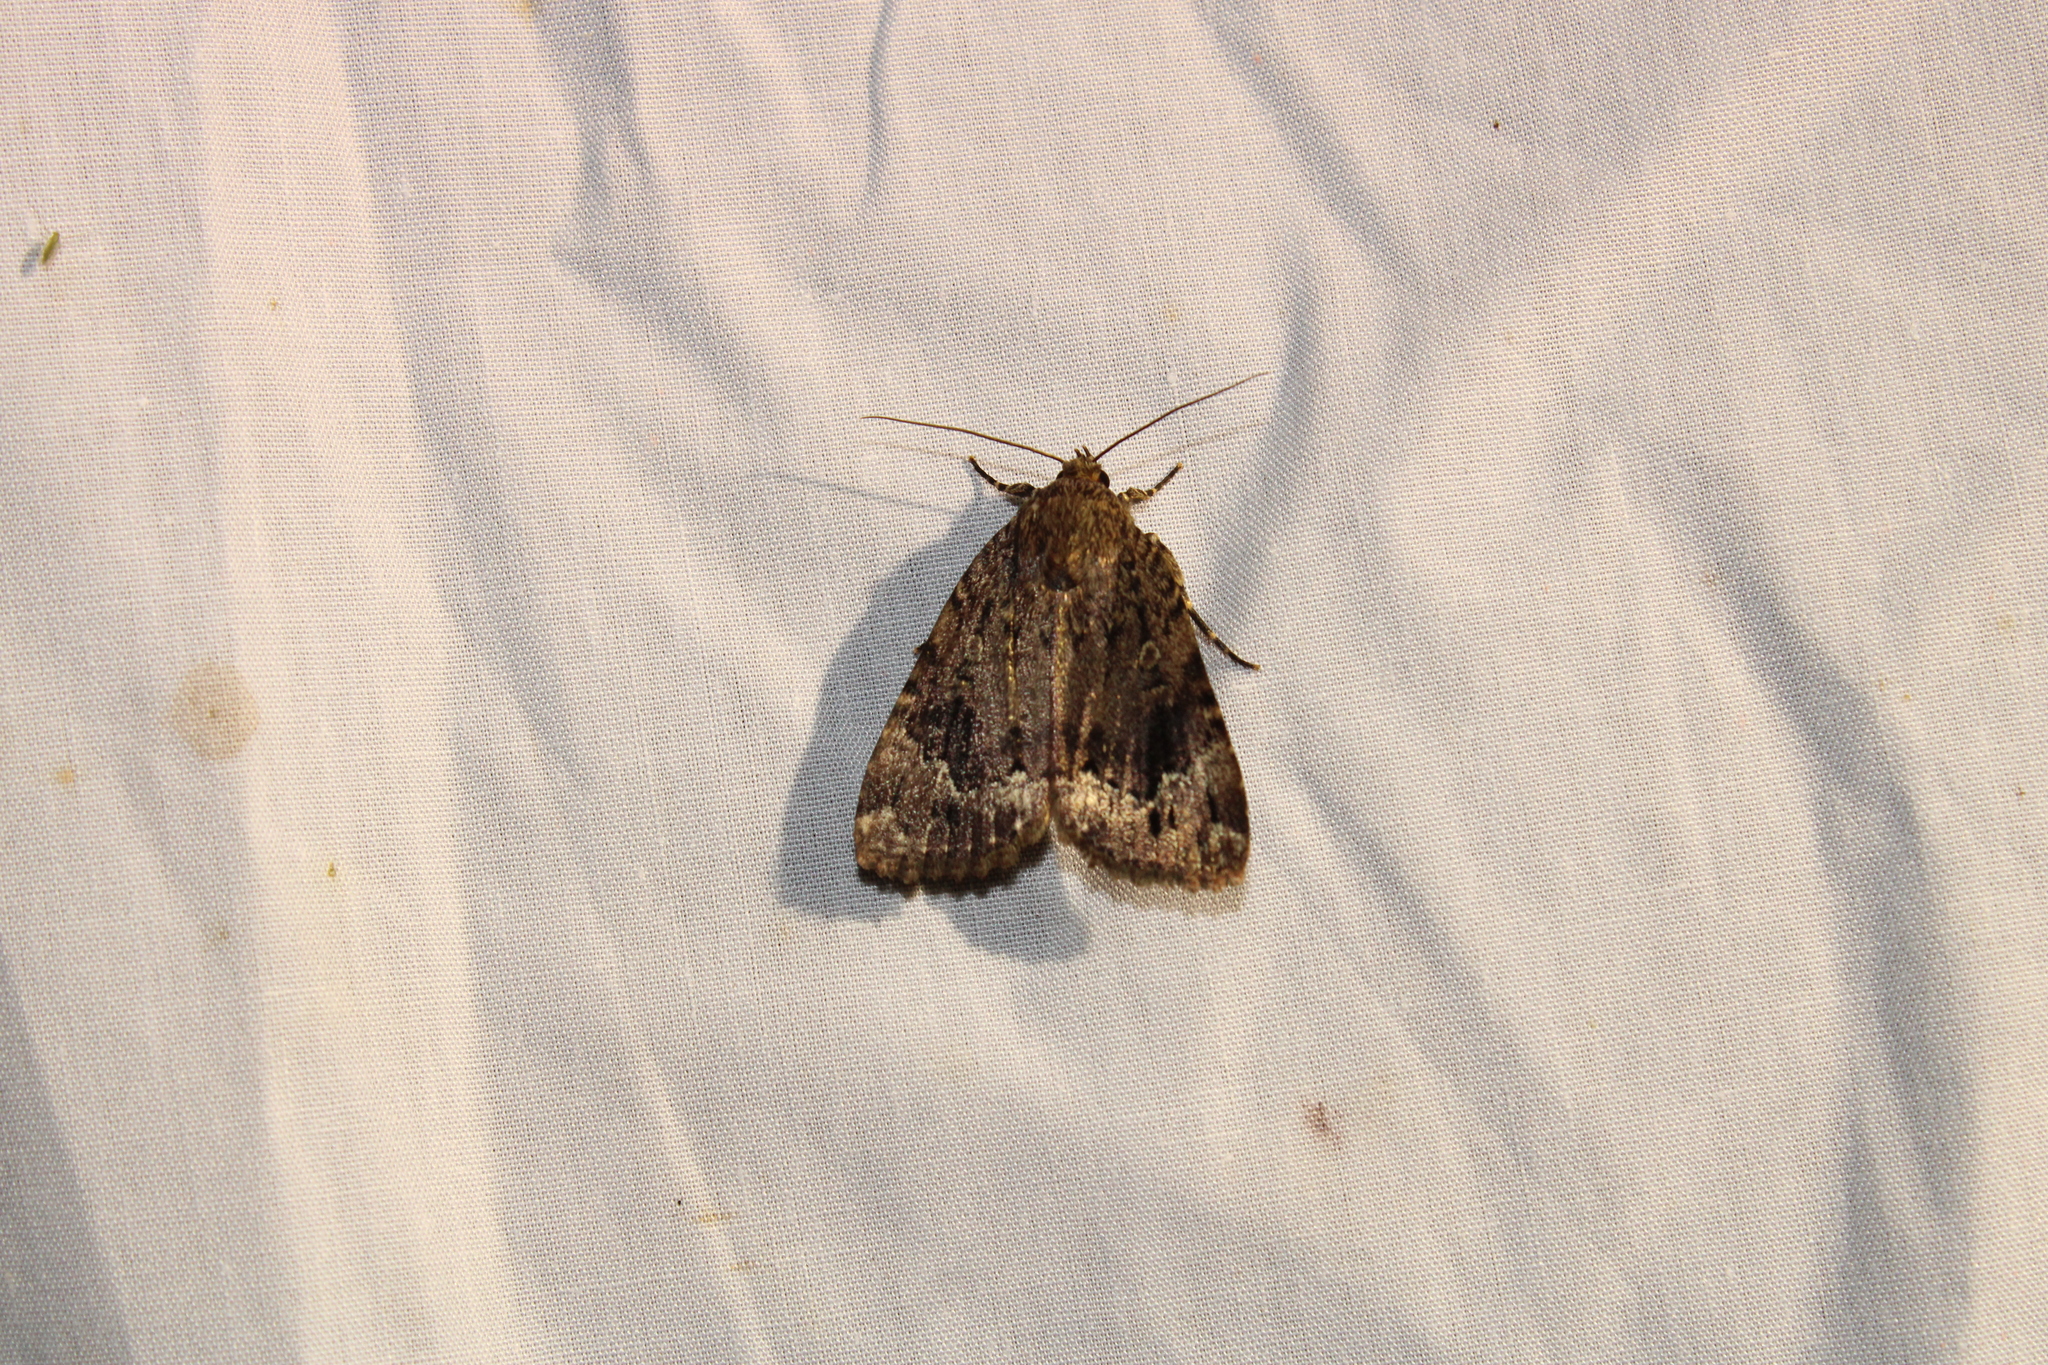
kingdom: Animalia
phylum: Arthropoda
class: Insecta
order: Lepidoptera
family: Noctuidae
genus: Amphipyra
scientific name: Amphipyra pyramidoides
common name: American copper underwing
